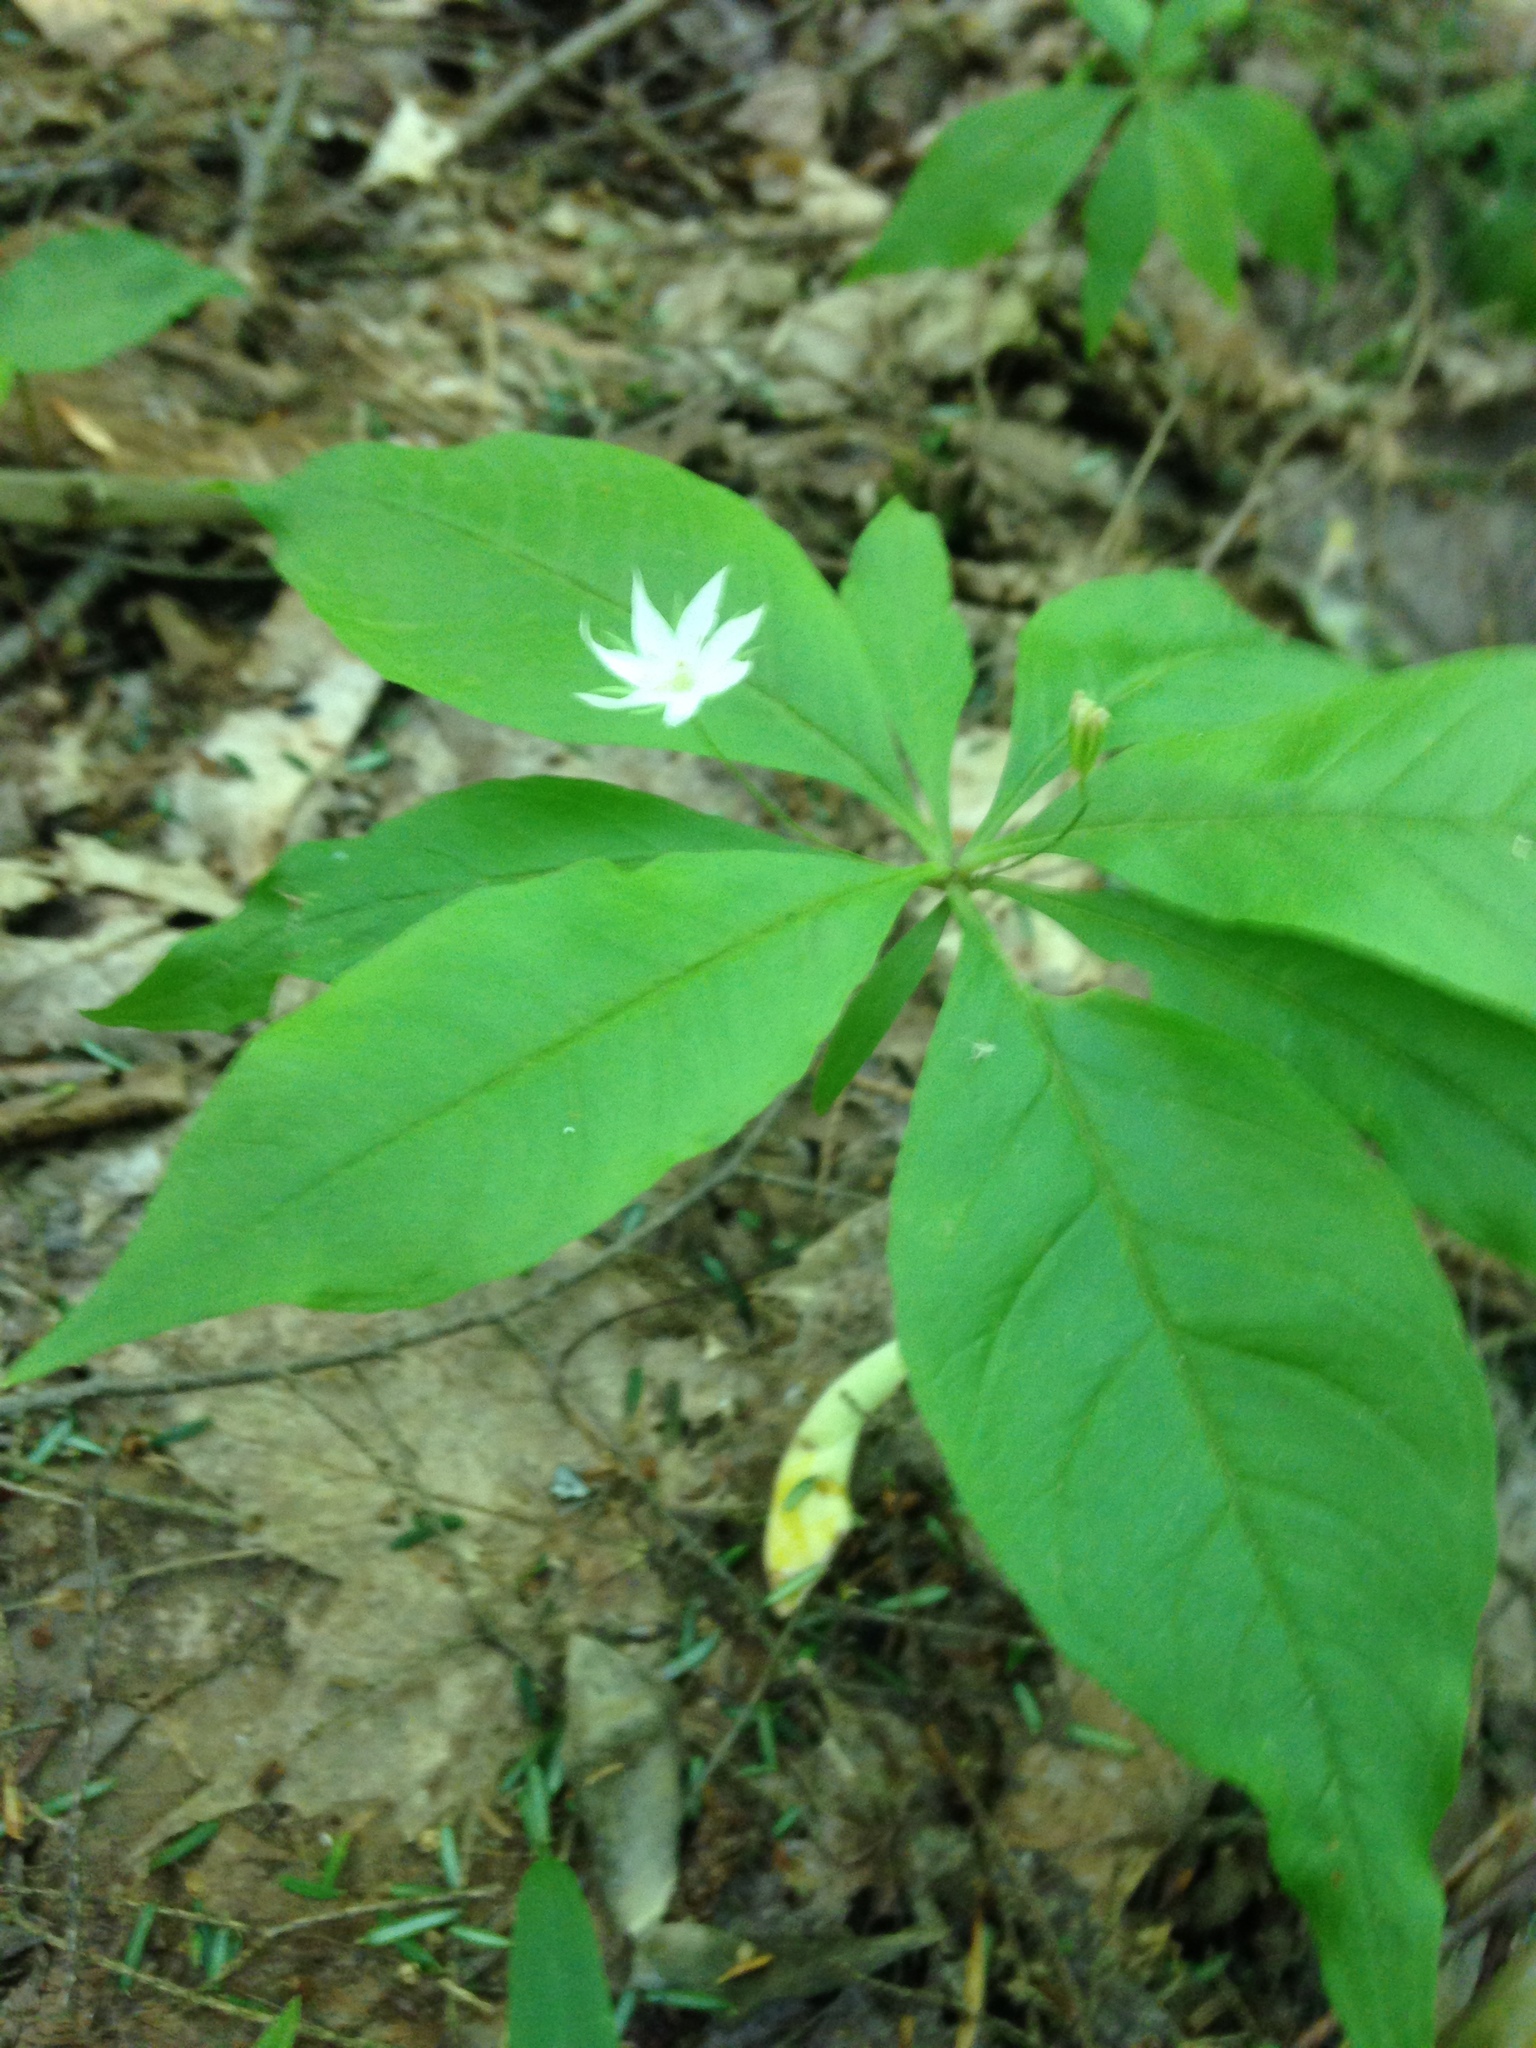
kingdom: Plantae
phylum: Tracheophyta
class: Magnoliopsida
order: Ericales
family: Primulaceae
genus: Lysimachia
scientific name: Lysimachia borealis
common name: American starflower
